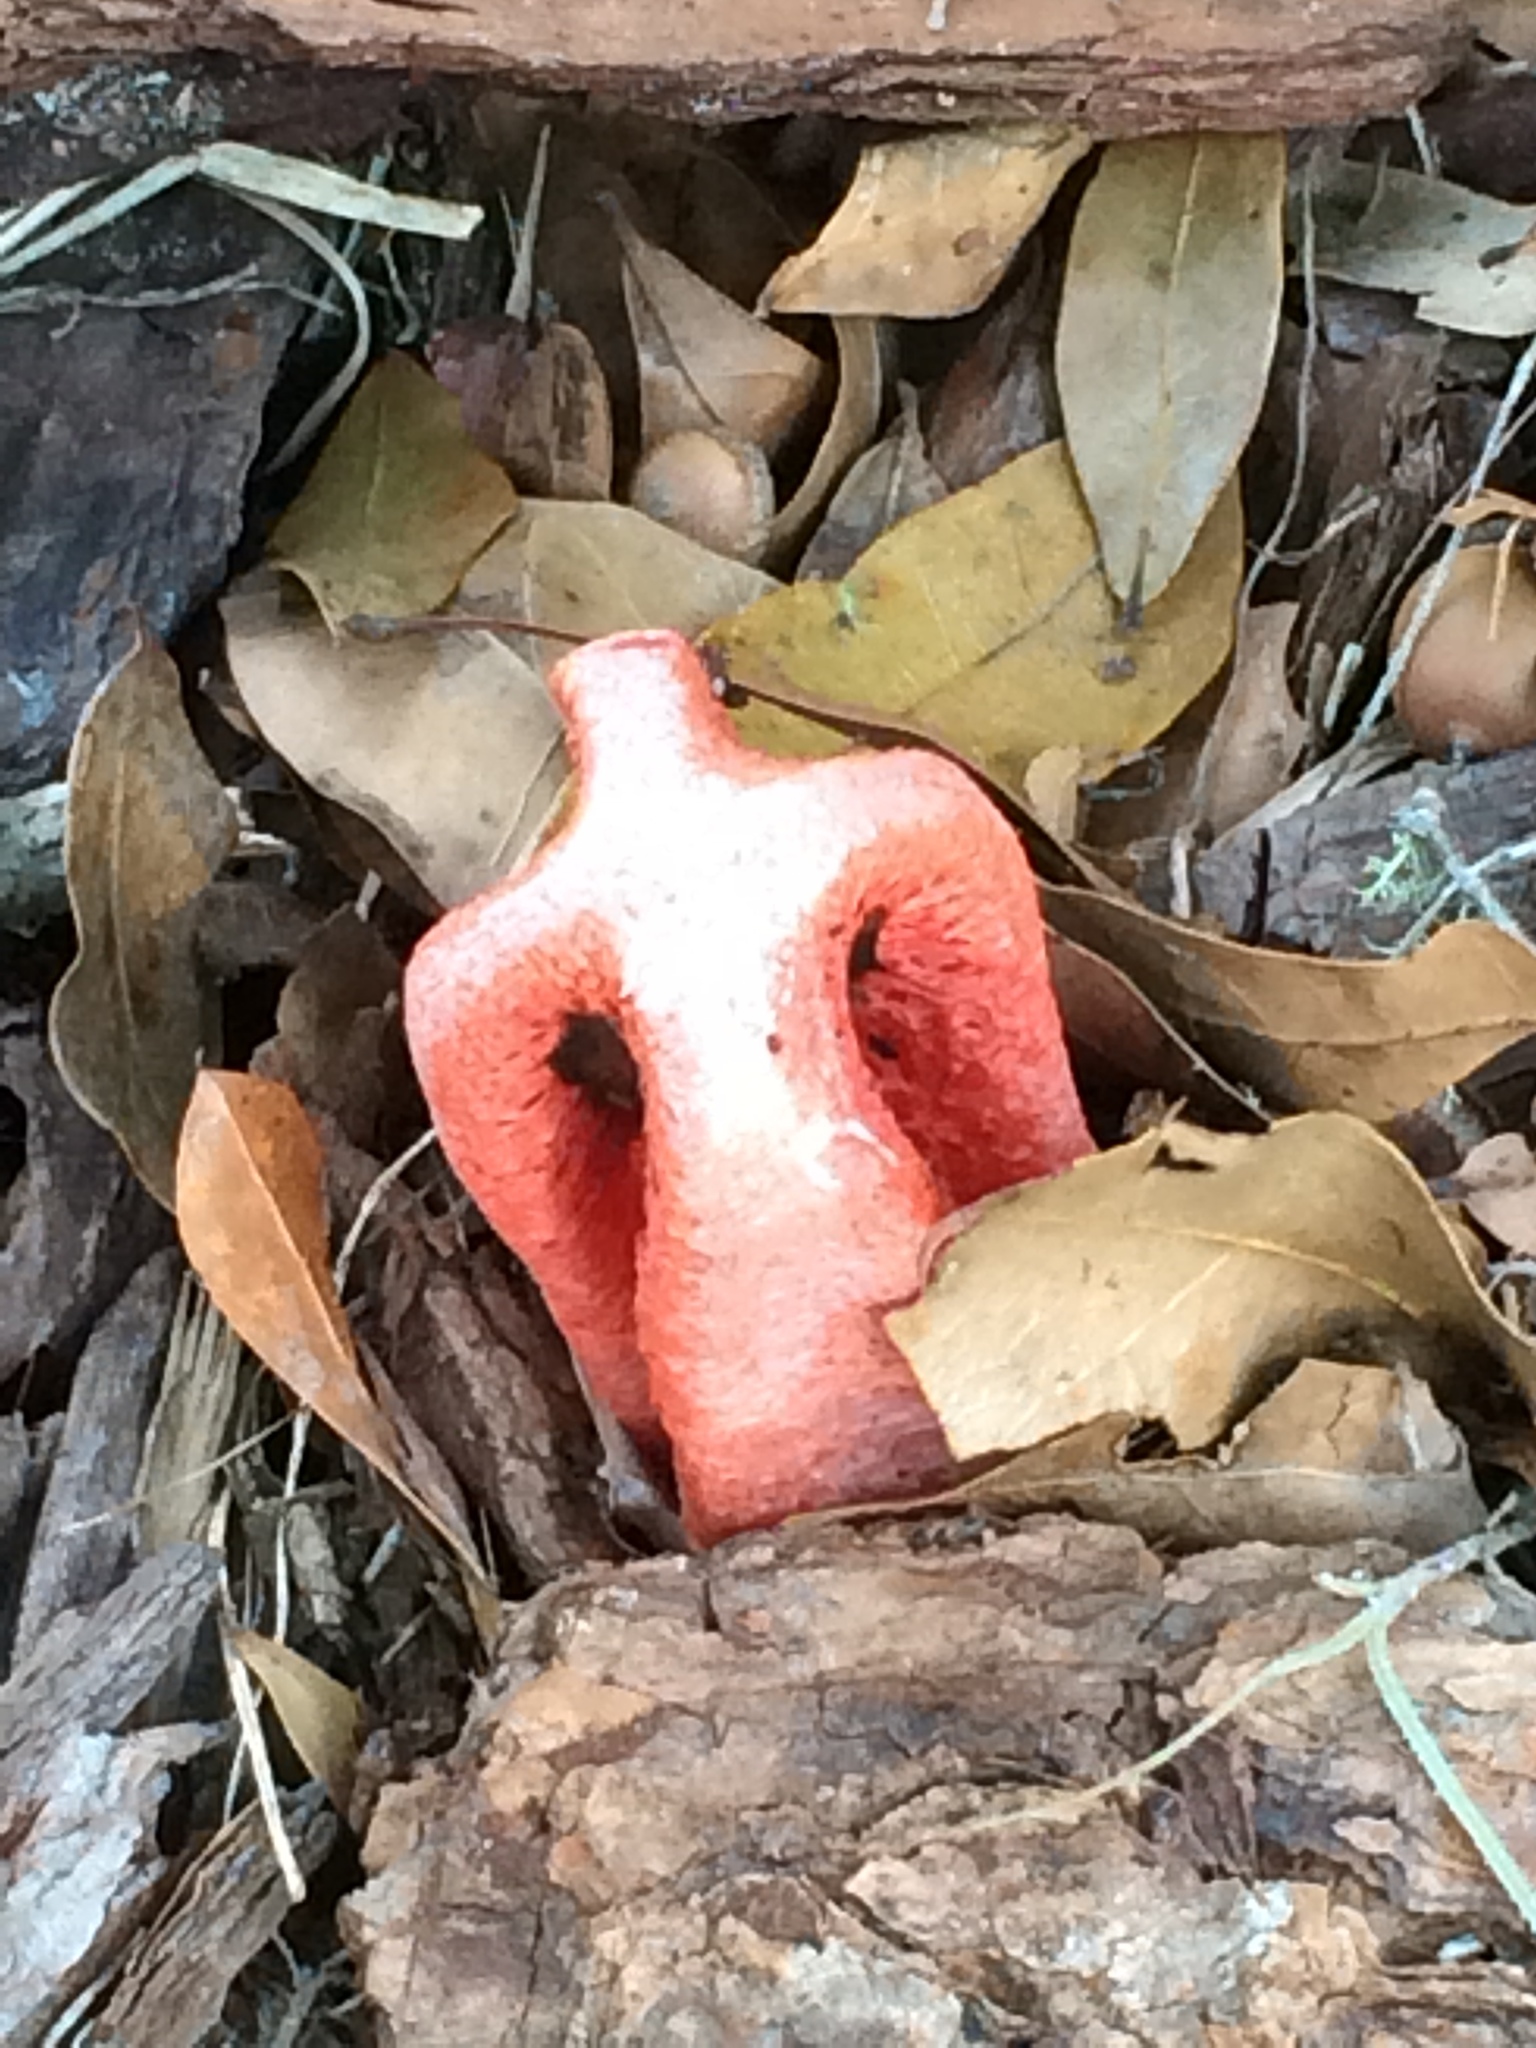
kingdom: Fungi
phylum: Basidiomycota
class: Agaricomycetes
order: Phallales
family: Phallaceae
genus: Clathrus
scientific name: Clathrus columnatus
